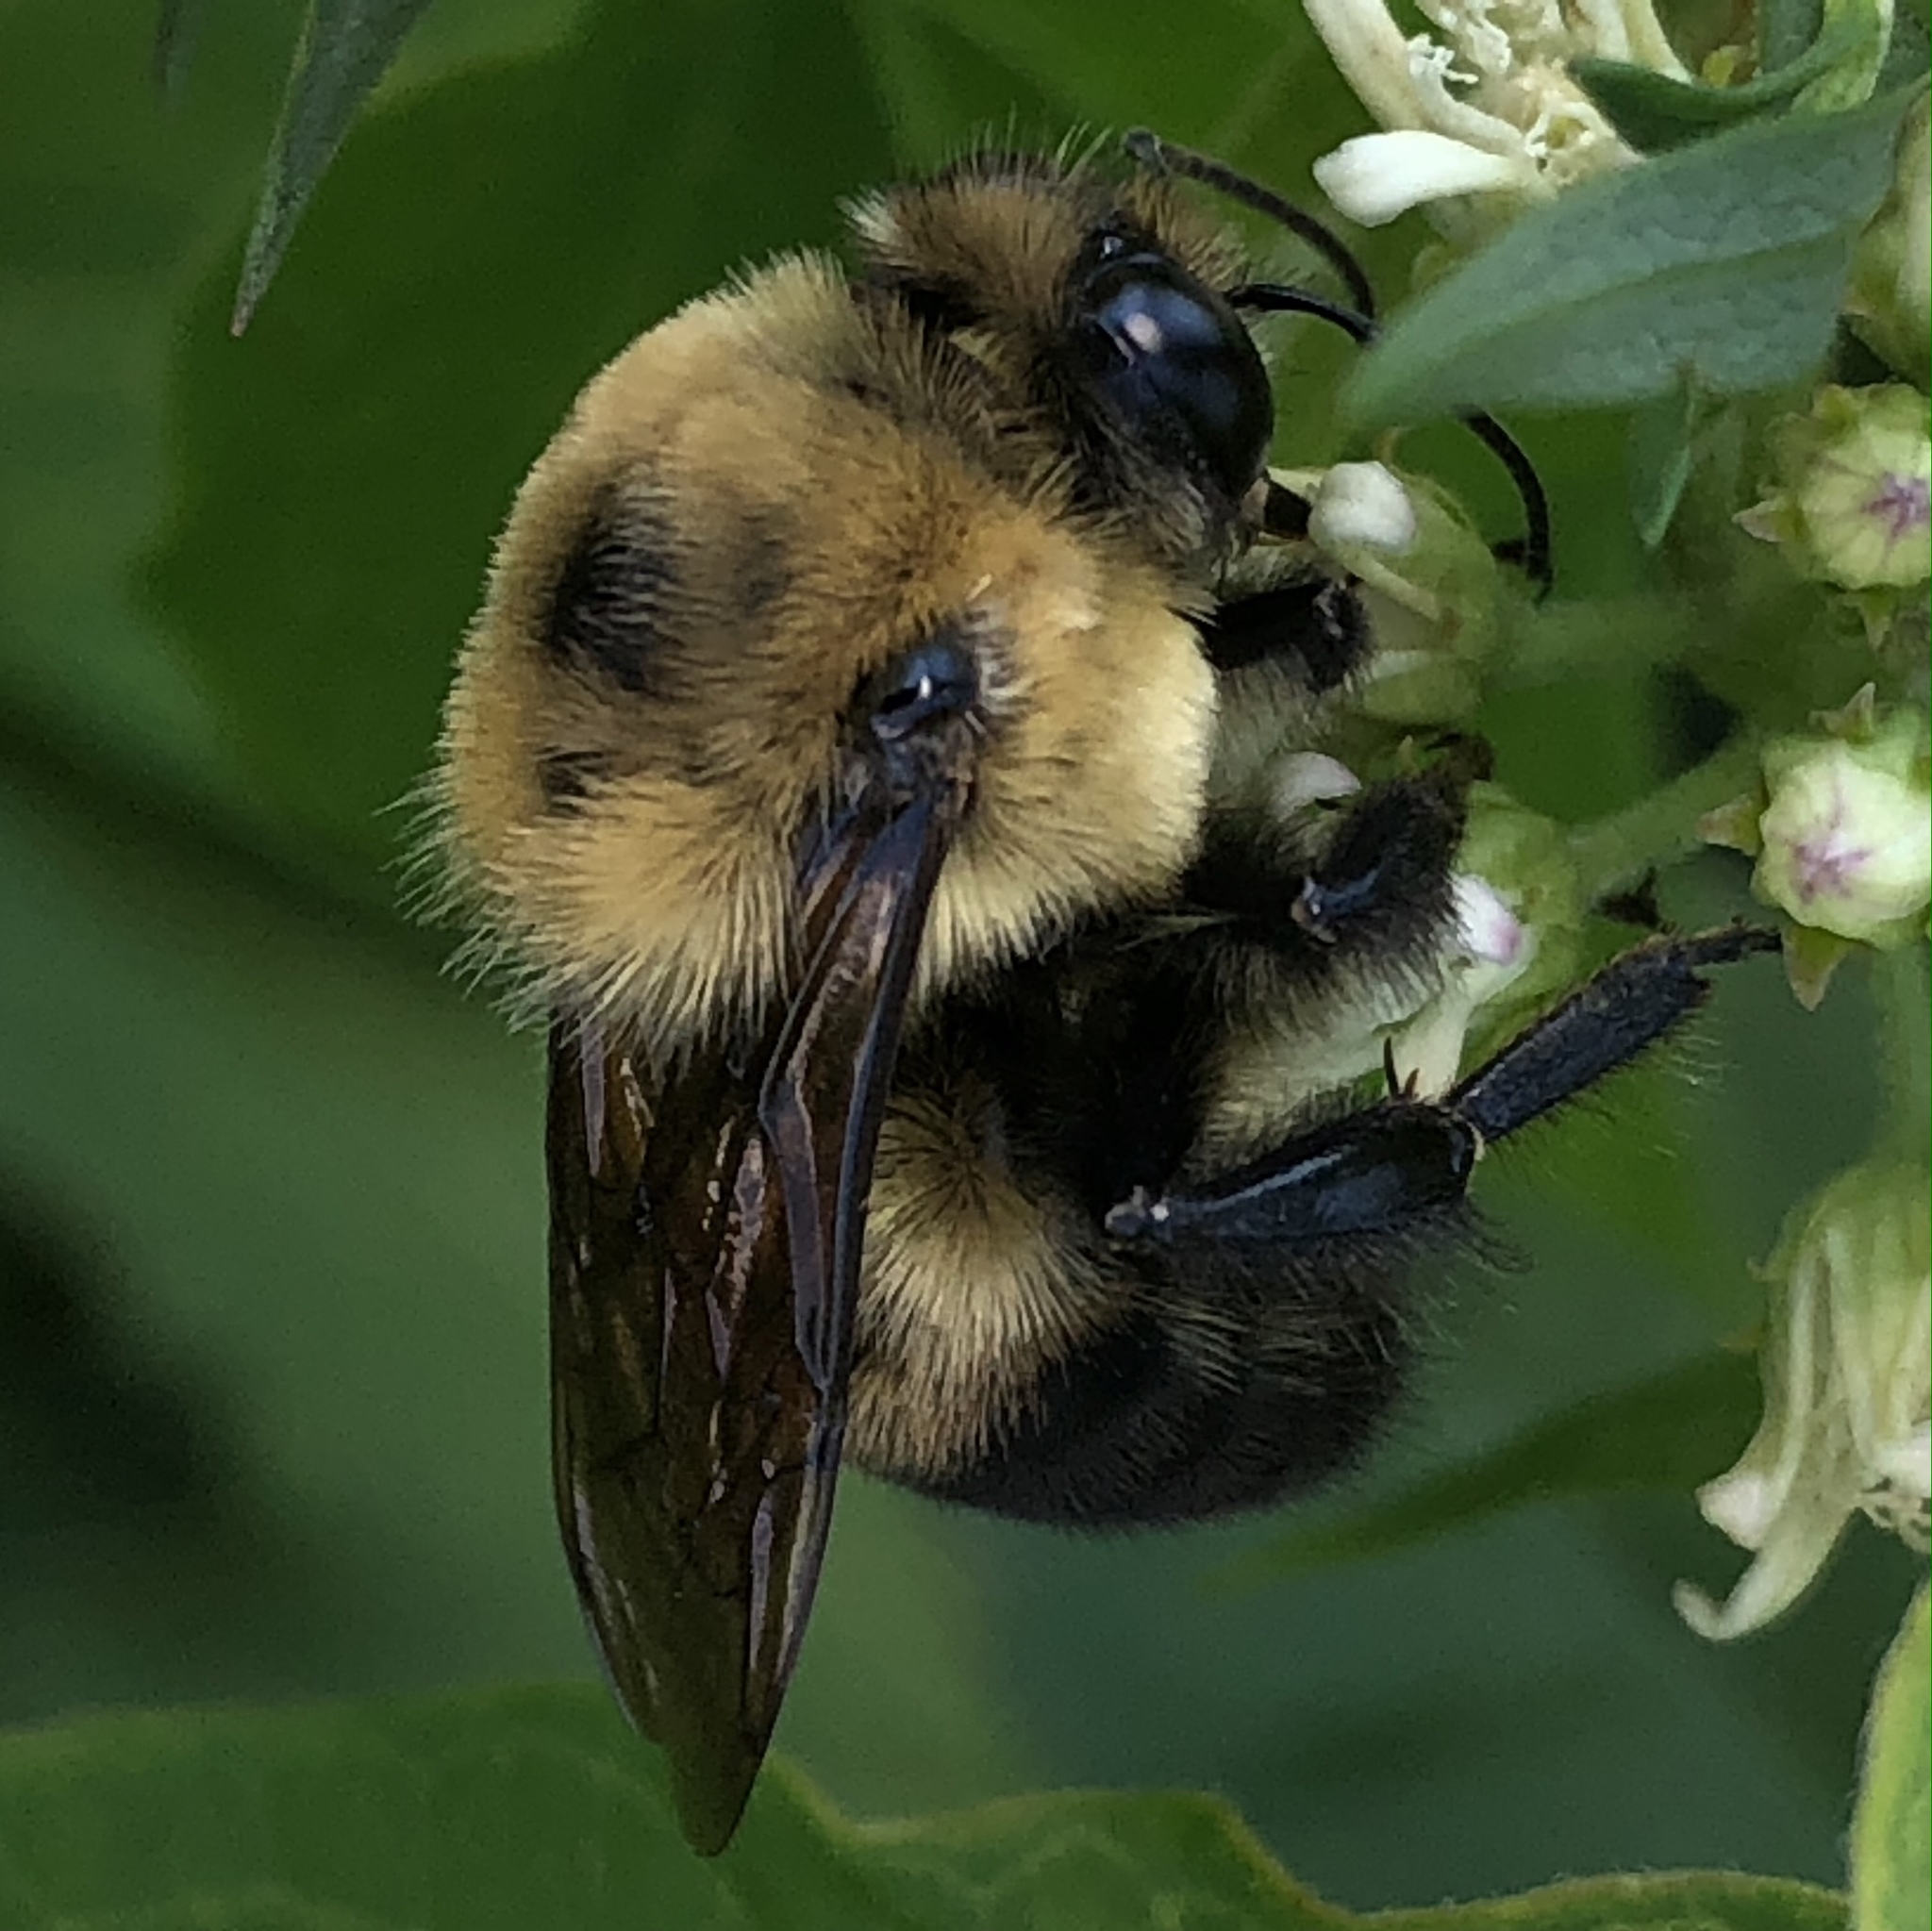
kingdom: Animalia
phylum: Arthropoda
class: Insecta
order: Hymenoptera
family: Apidae
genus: Bombus
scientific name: Bombus griseocollis
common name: Brown-belted bumble bee
